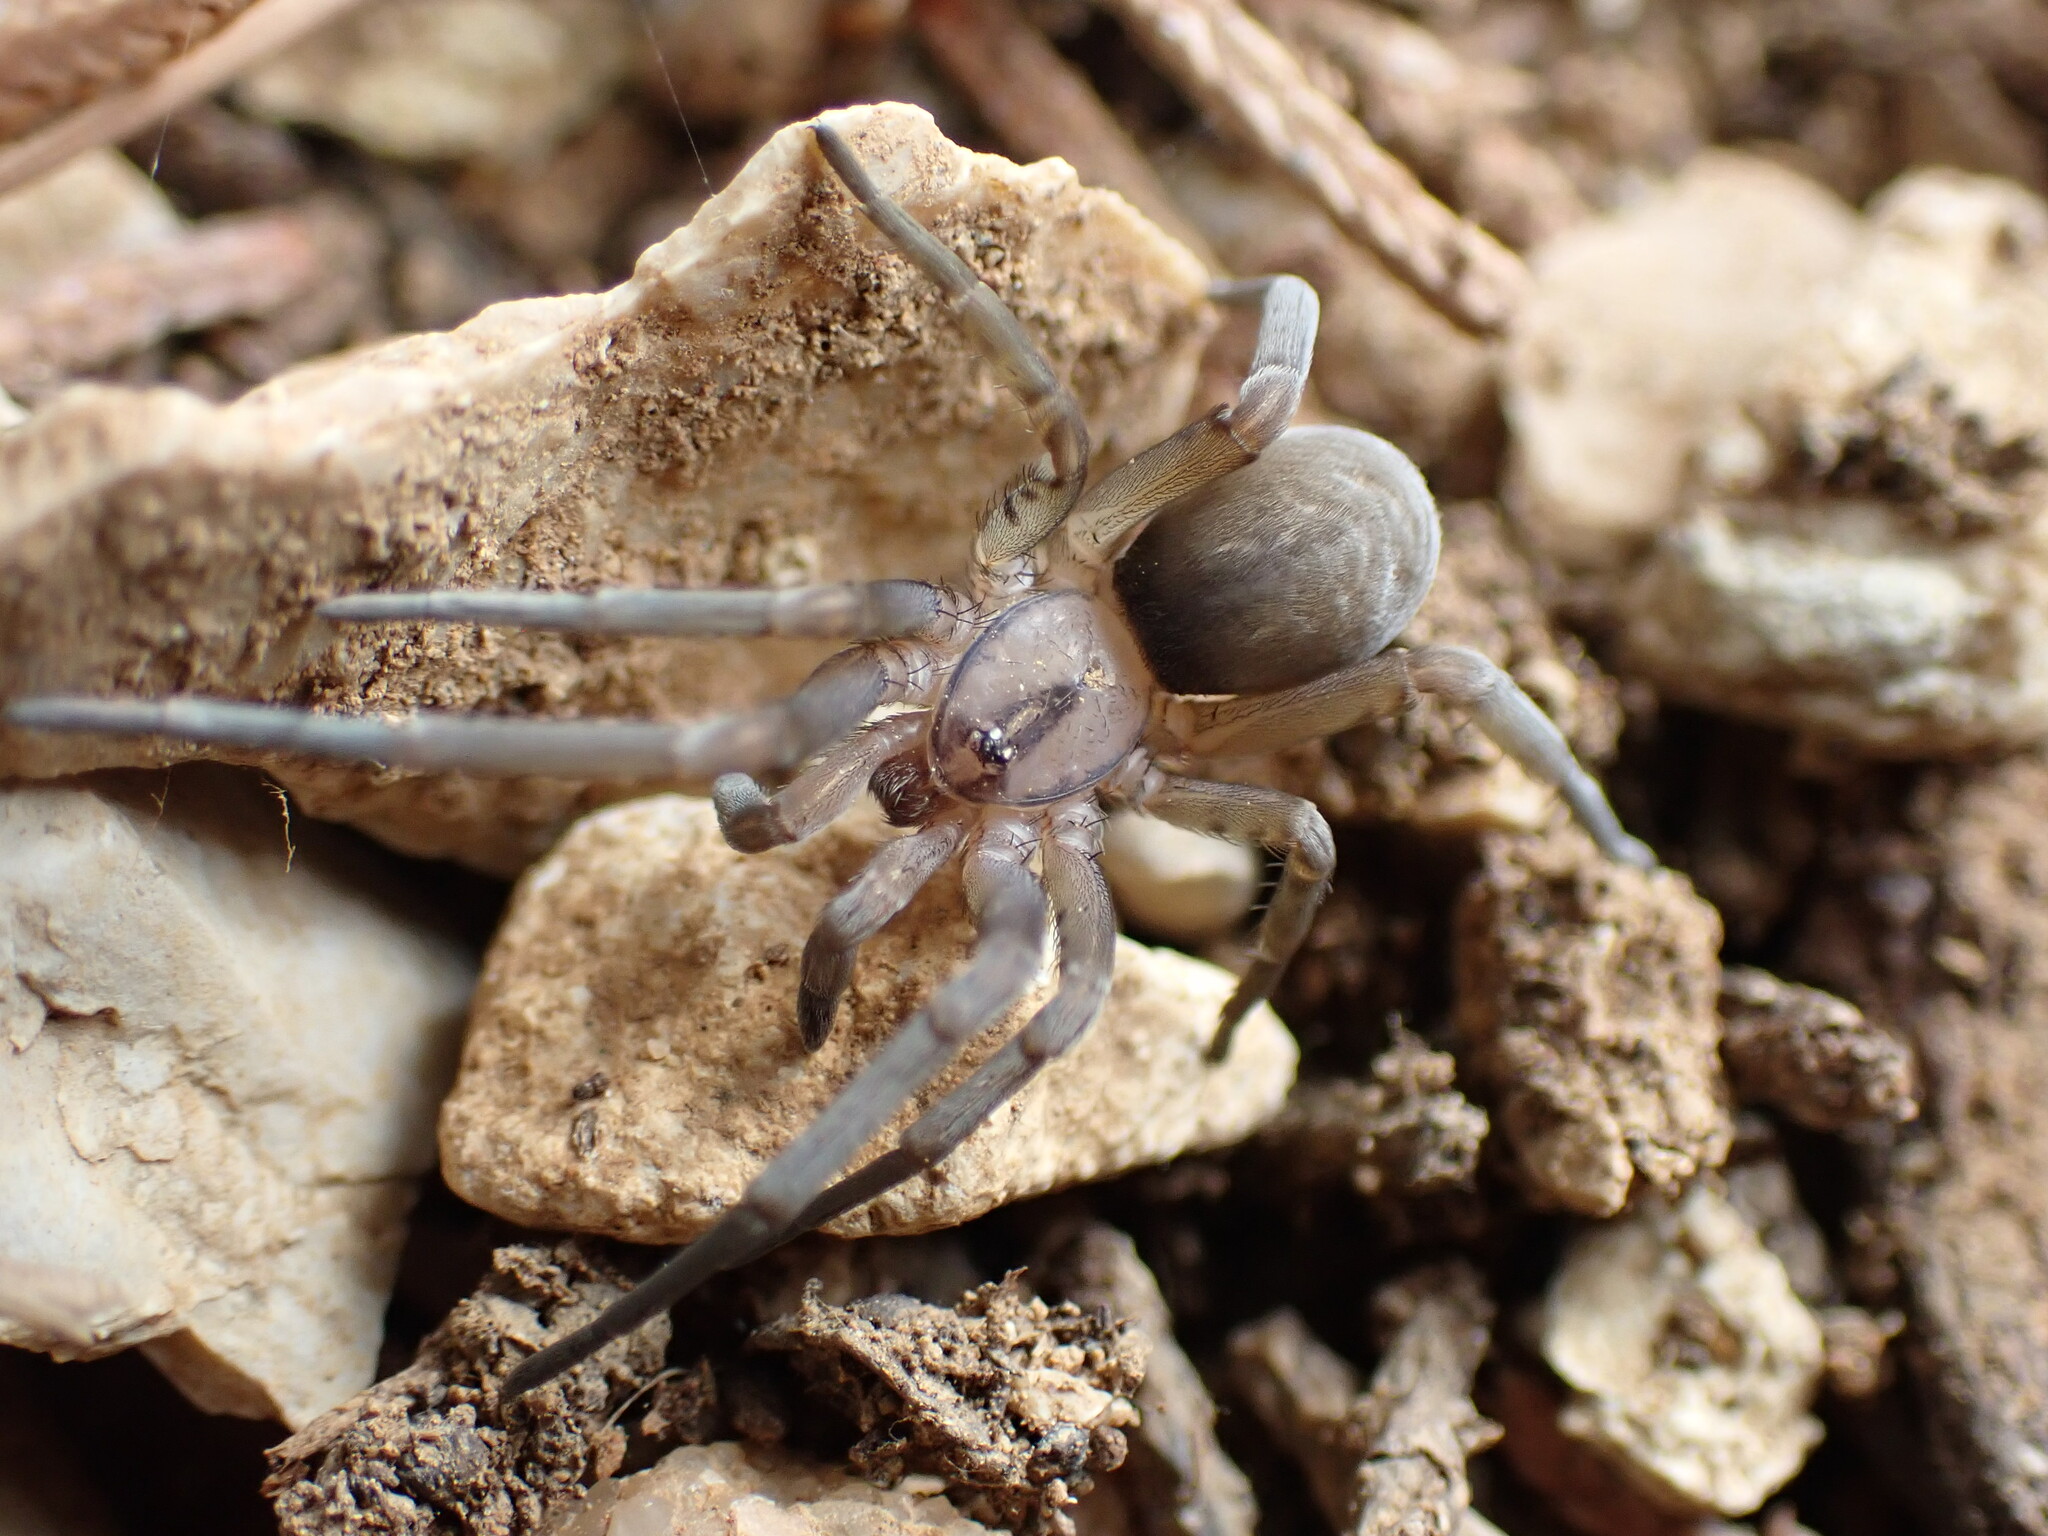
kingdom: Animalia
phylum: Arthropoda
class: Arachnida
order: Araneae
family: Filistatidae
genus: Filistata
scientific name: Filistata insidiatrix
